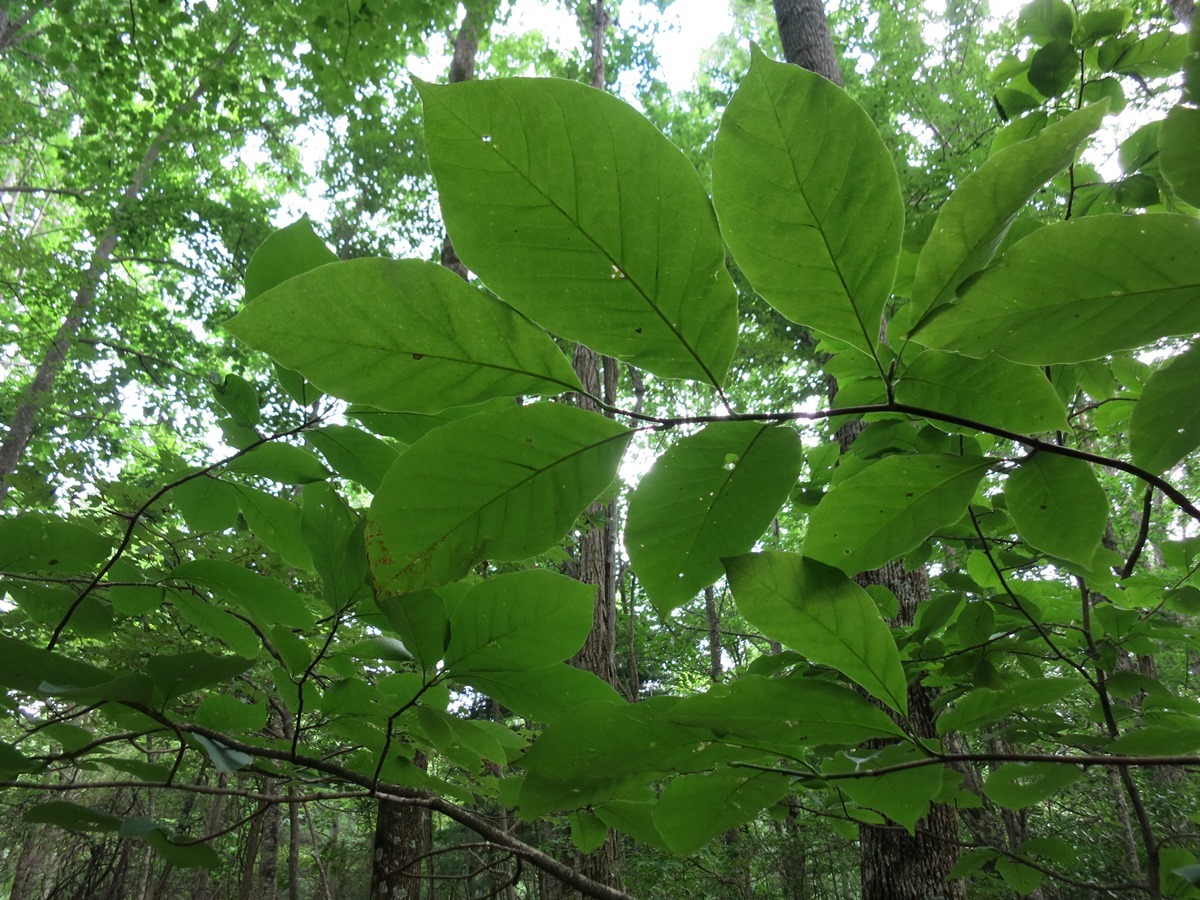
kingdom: Plantae
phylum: Tracheophyta
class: Magnoliopsida
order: Magnoliales
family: Magnoliaceae
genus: Magnolia
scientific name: Magnolia acuminata
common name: Cucumber magnolia
